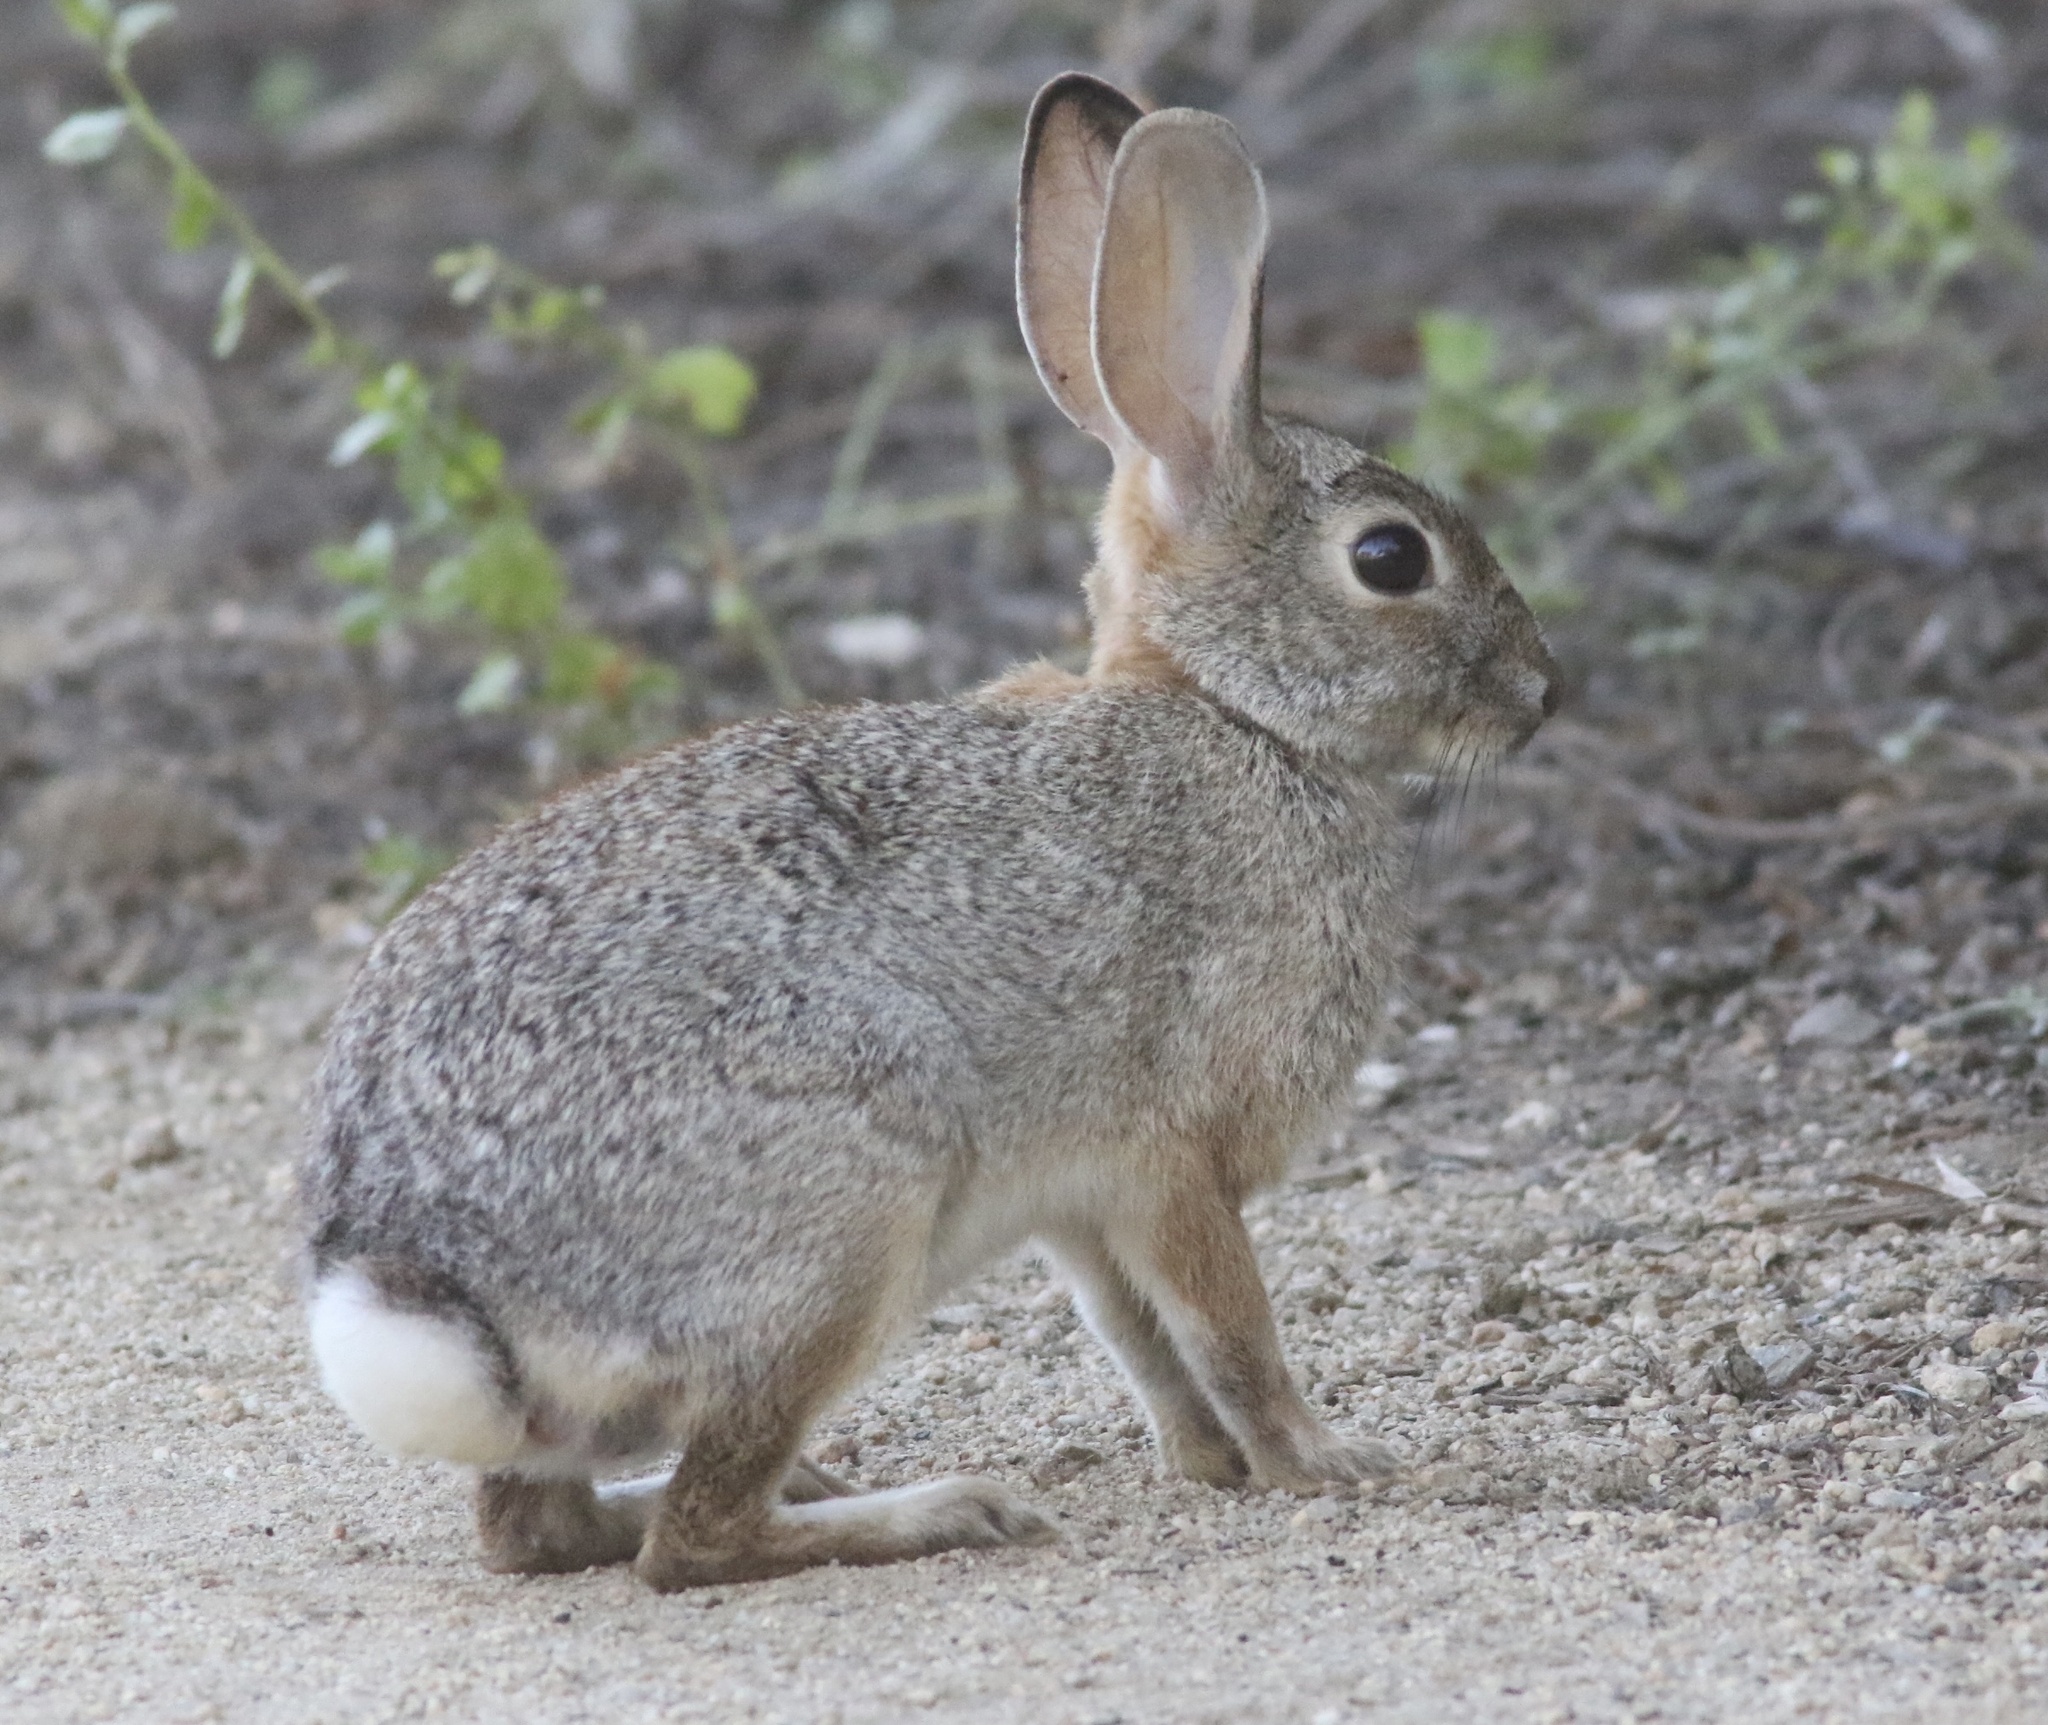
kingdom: Animalia
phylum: Chordata
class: Mammalia
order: Lagomorpha
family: Leporidae
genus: Sylvilagus
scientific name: Sylvilagus audubonii
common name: Desert cottontail
